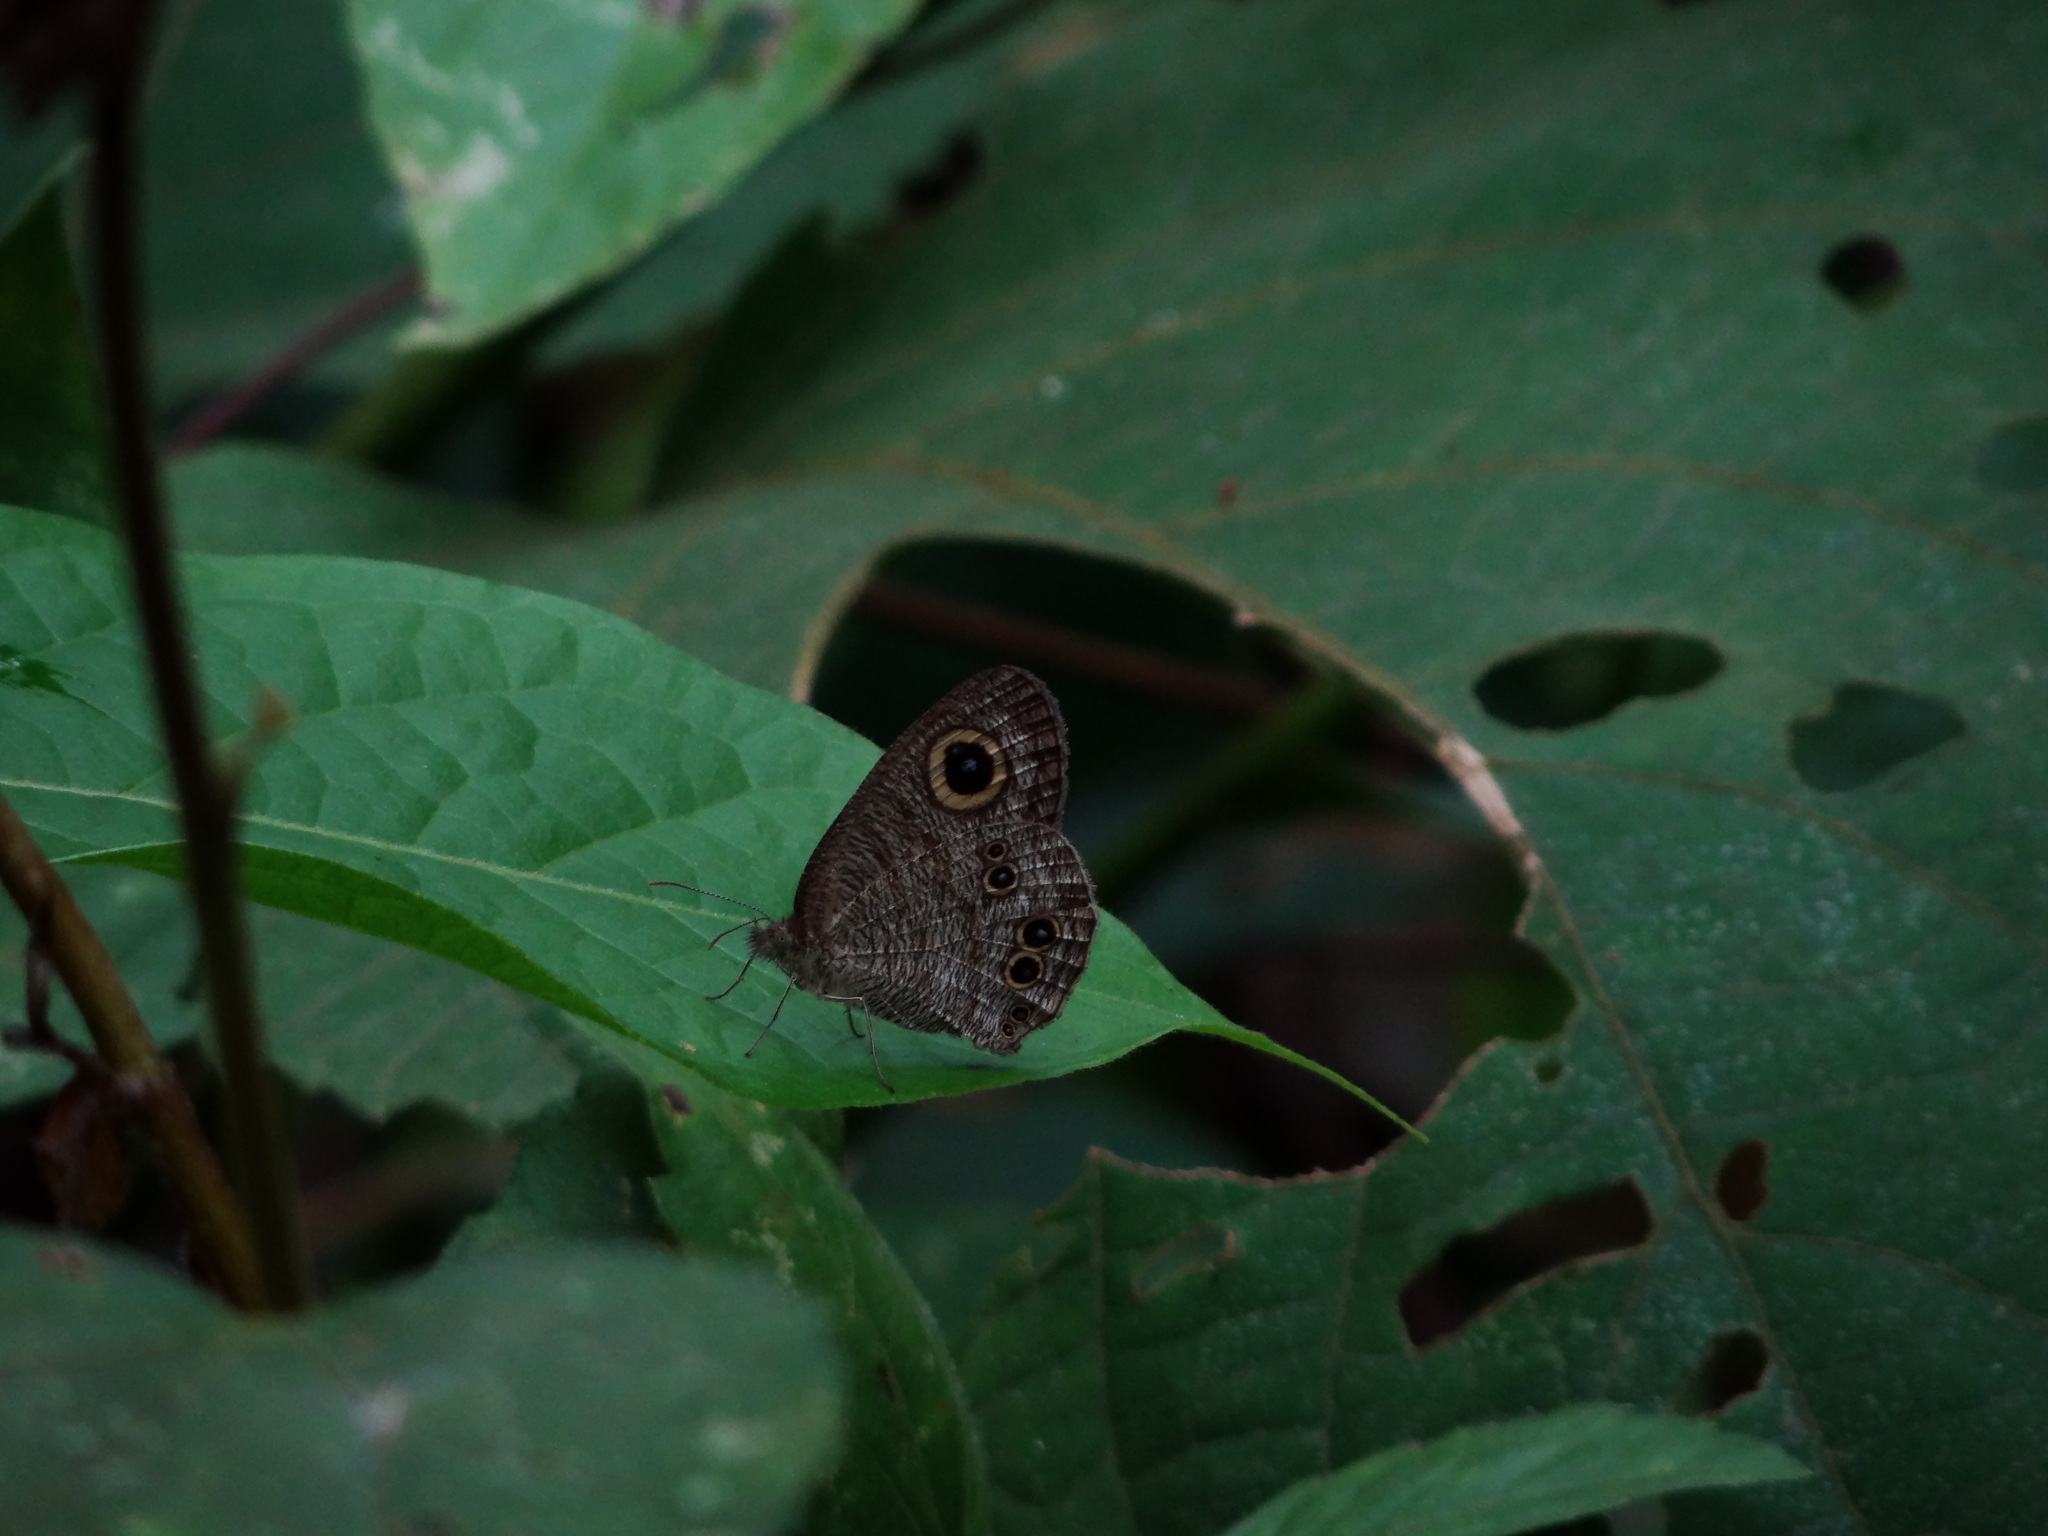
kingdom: Animalia
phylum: Arthropoda
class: Insecta
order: Lepidoptera
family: Nymphalidae
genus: Ypthima
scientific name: Ypthima baldus
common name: Common five-ring
